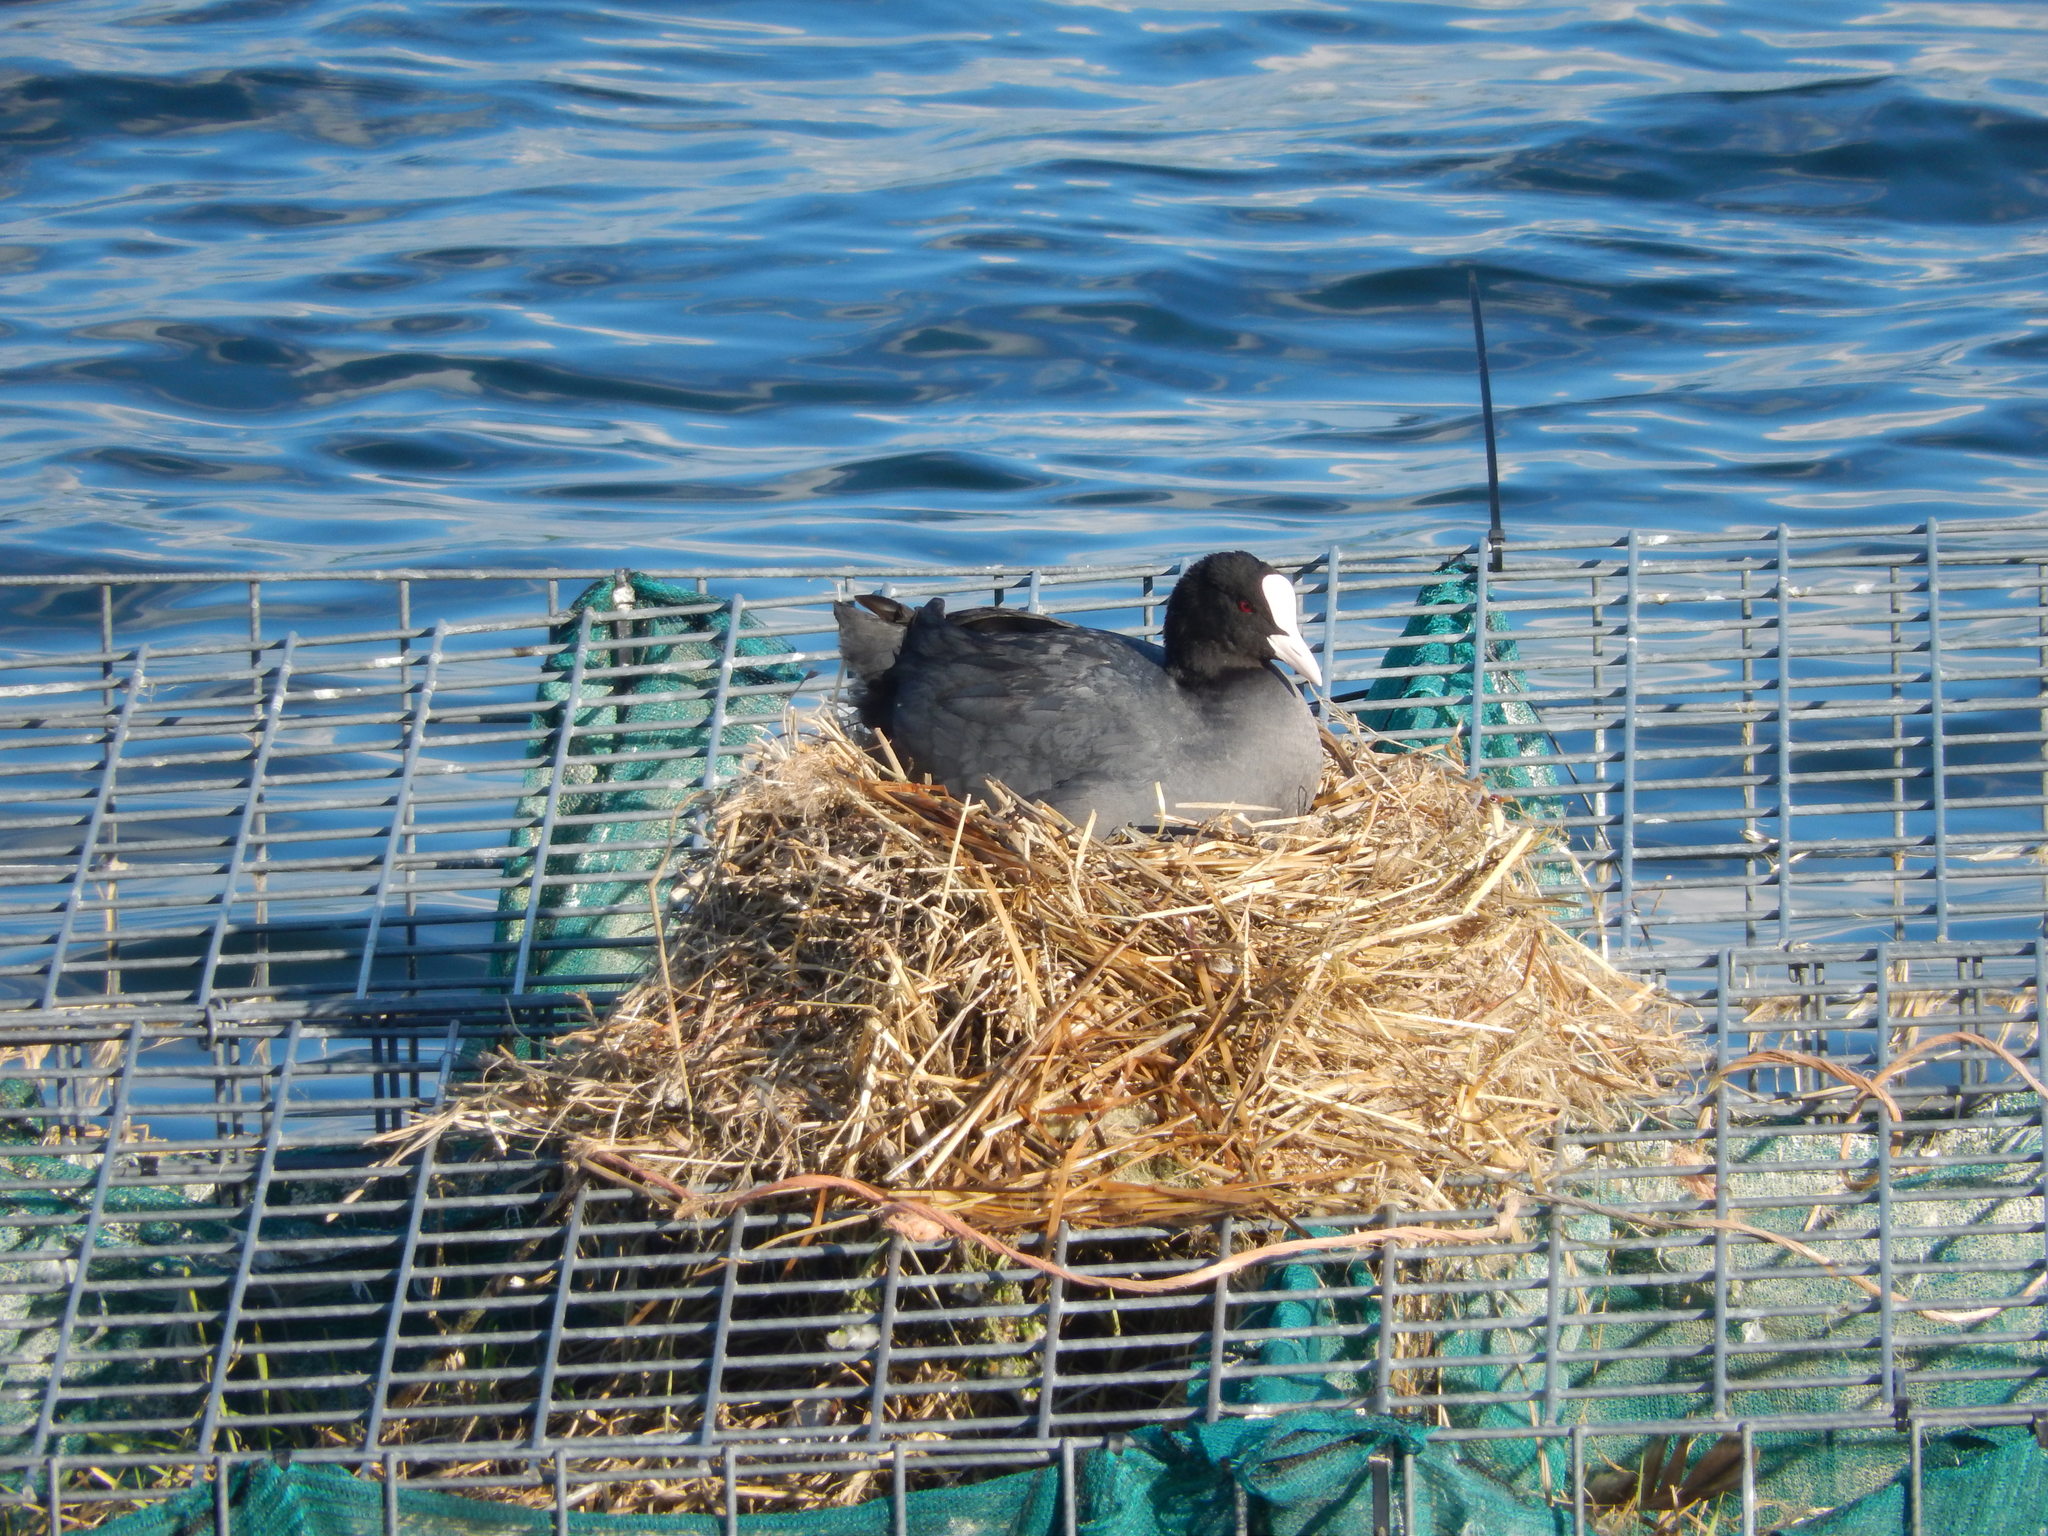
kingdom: Animalia
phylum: Chordata
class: Aves
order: Gruiformes
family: Rallidae
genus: Fulica
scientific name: Fulica atra
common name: Eurasian coot
